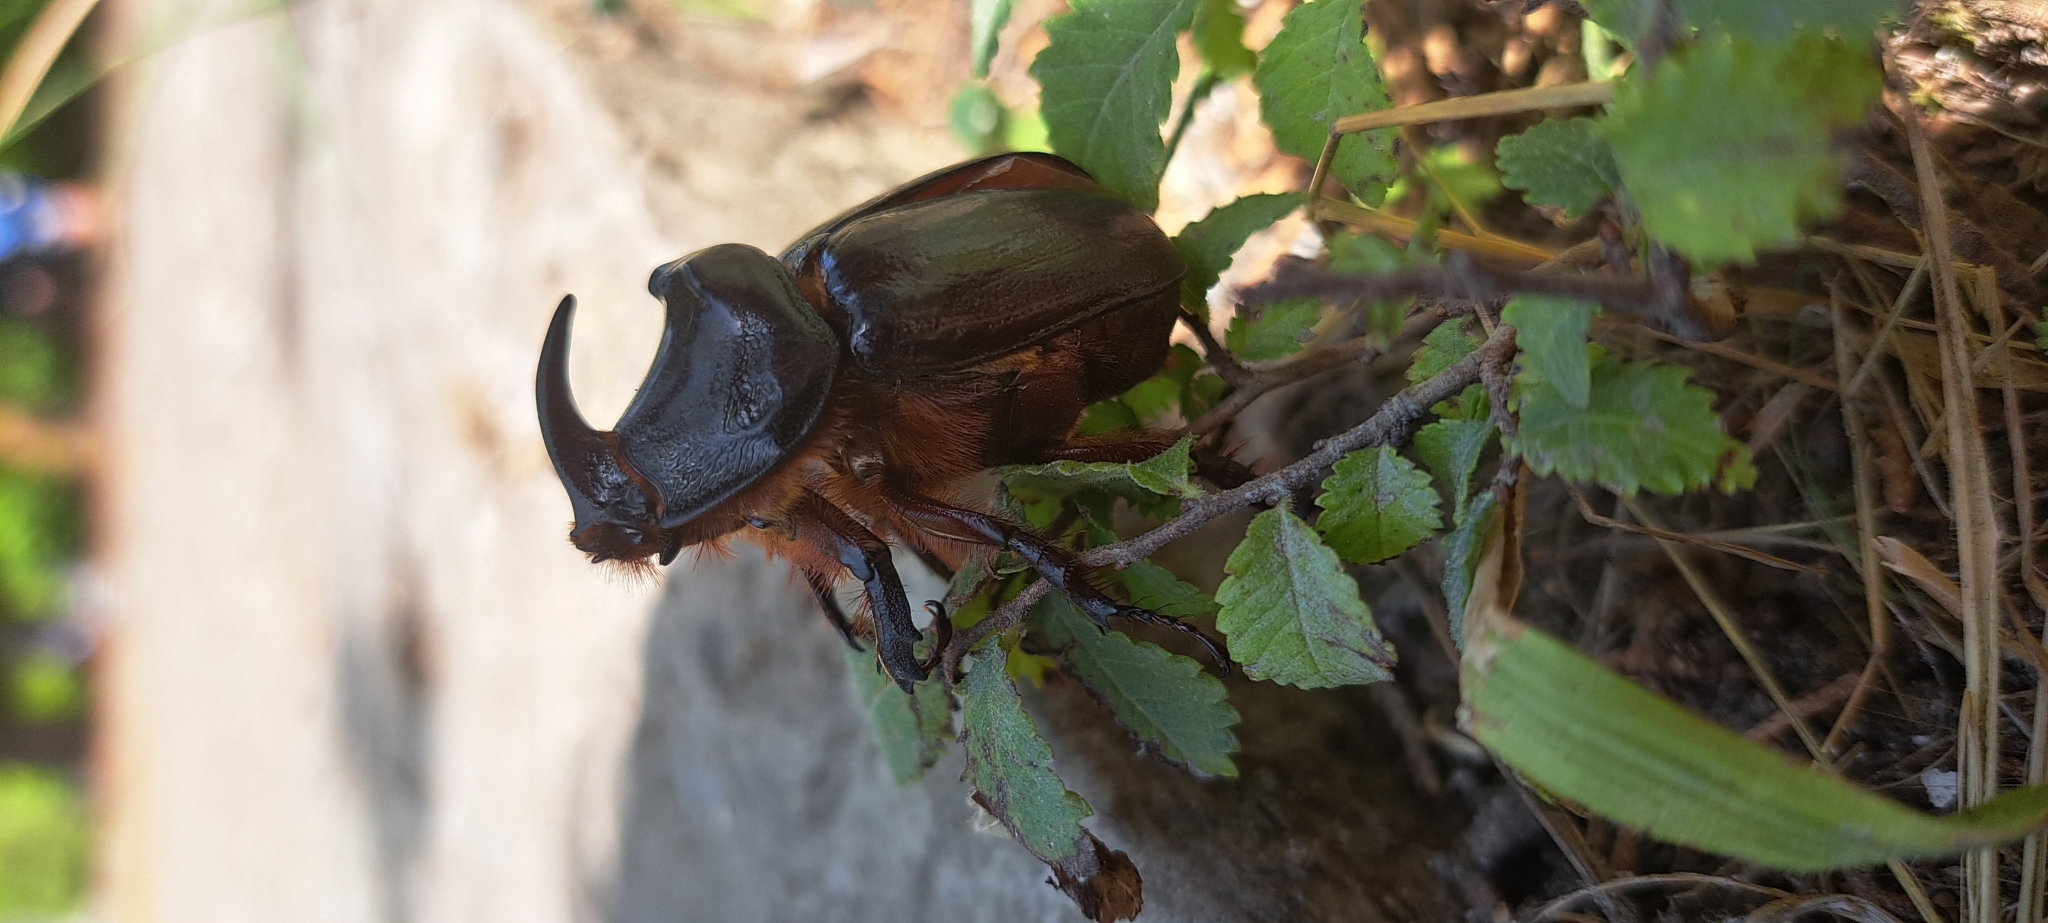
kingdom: Animalia
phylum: Arthropoda
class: Insecta
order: Coleoptera
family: Scarabaeidae
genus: Oryctes
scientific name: Oryctes nasicornis
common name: European rhinoceros beetle
